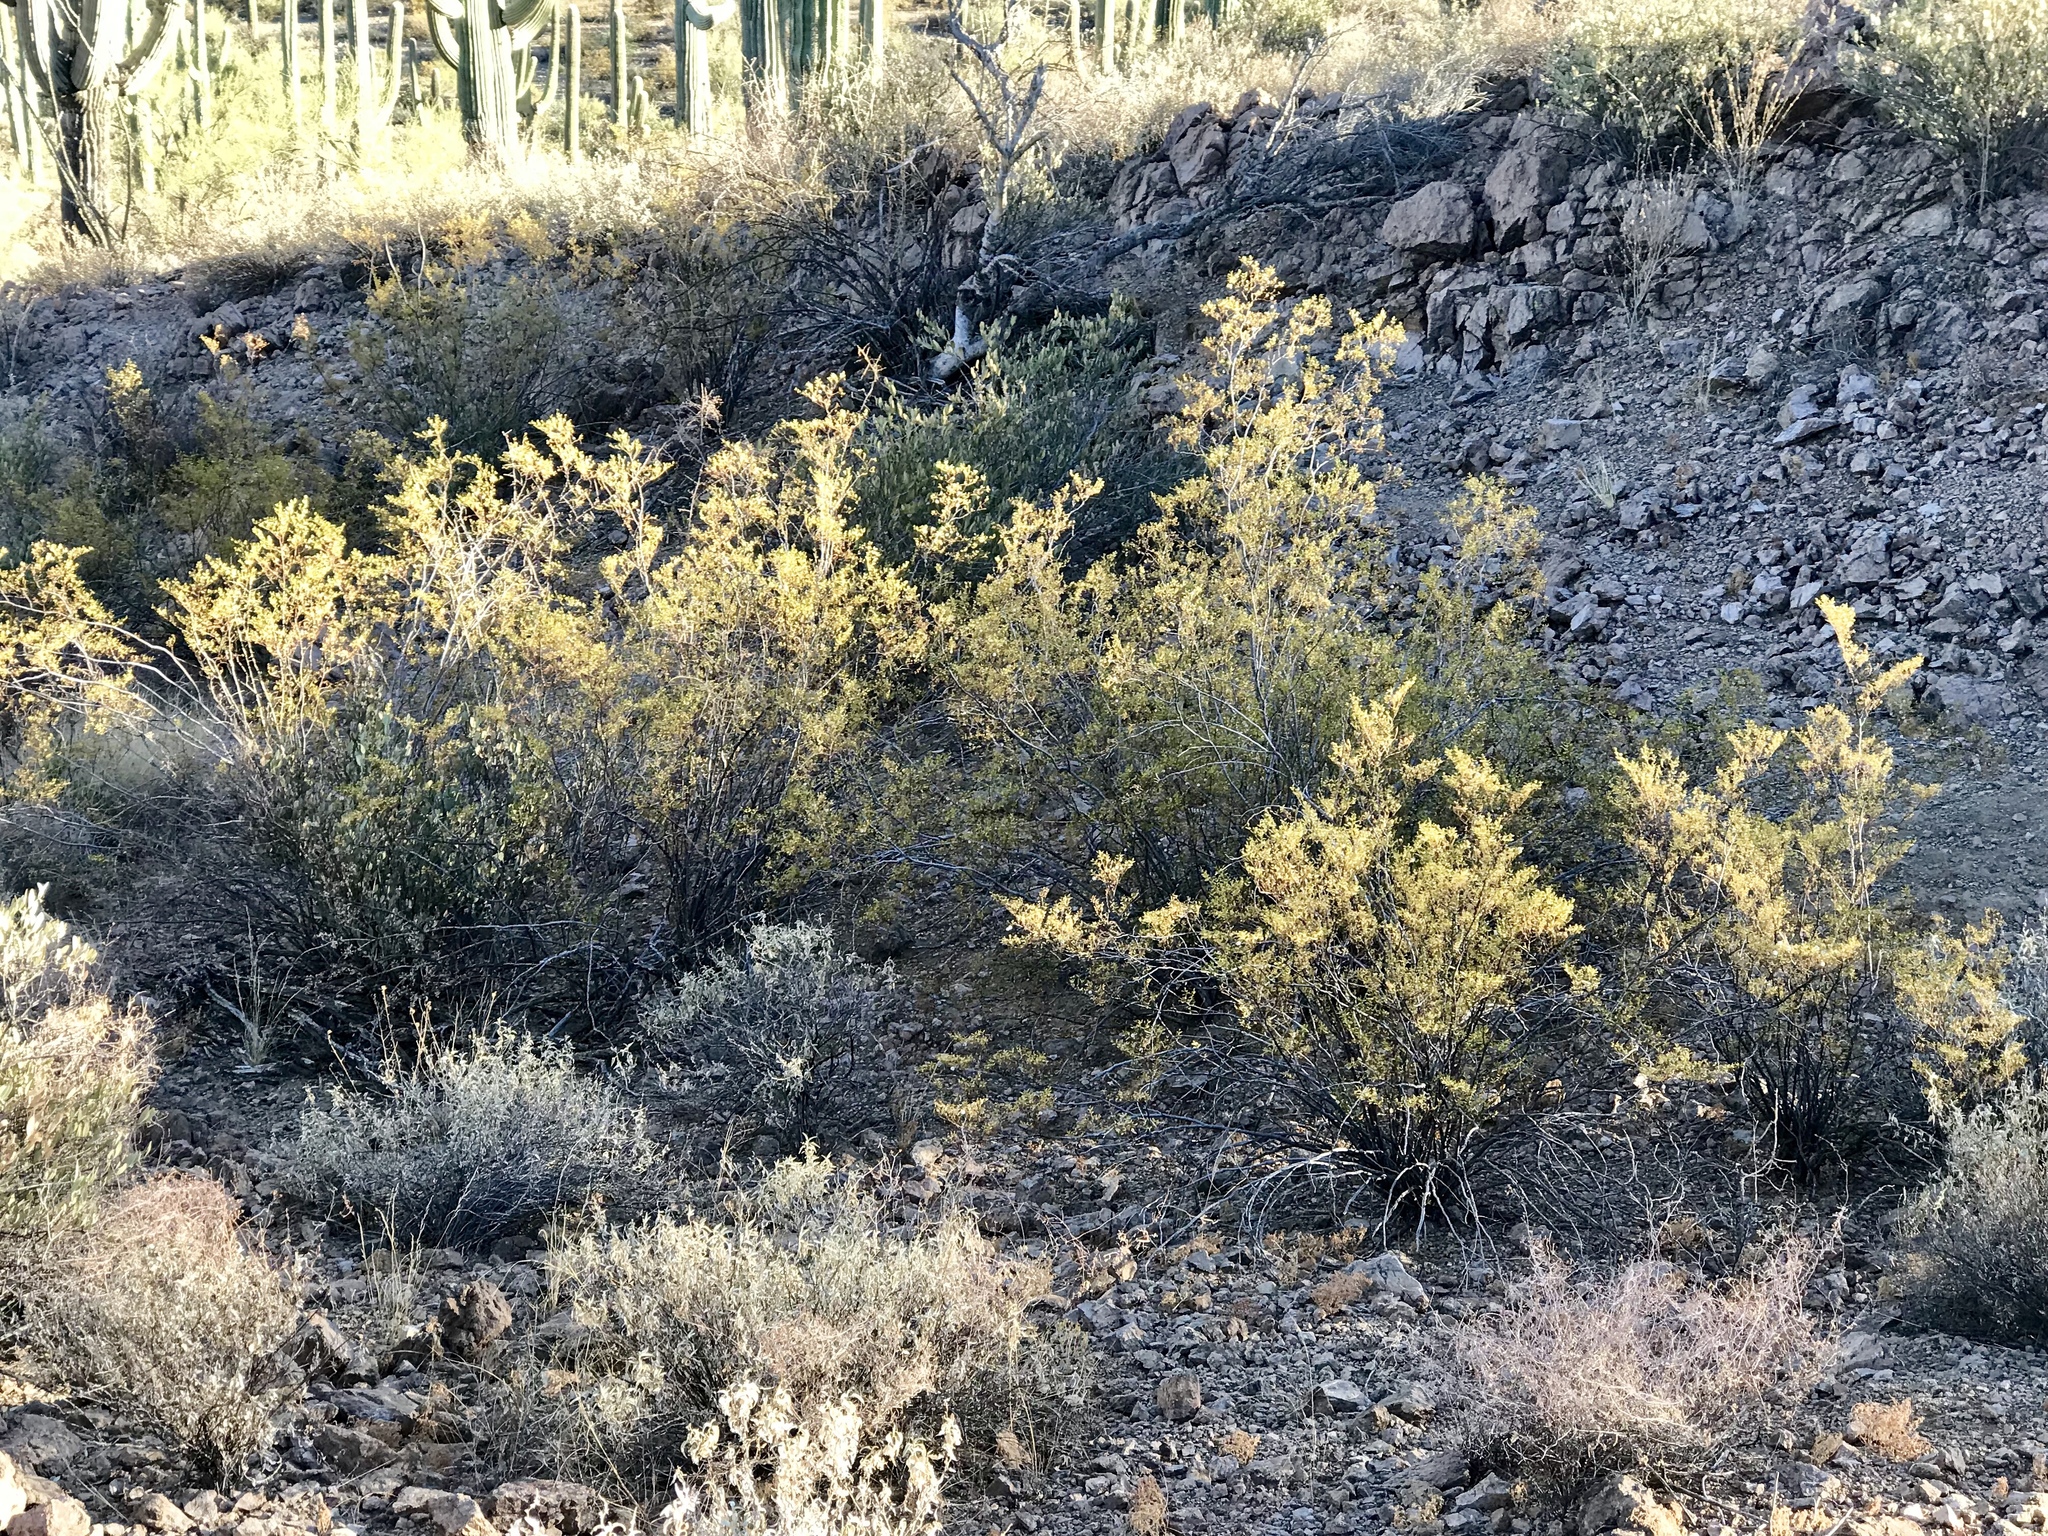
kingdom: Plantae
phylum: Tracheophyta
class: Magnoliopsida
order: Zygophyllales
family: Zygophyllaceae
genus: Larrea
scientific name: Larrea tridentata
